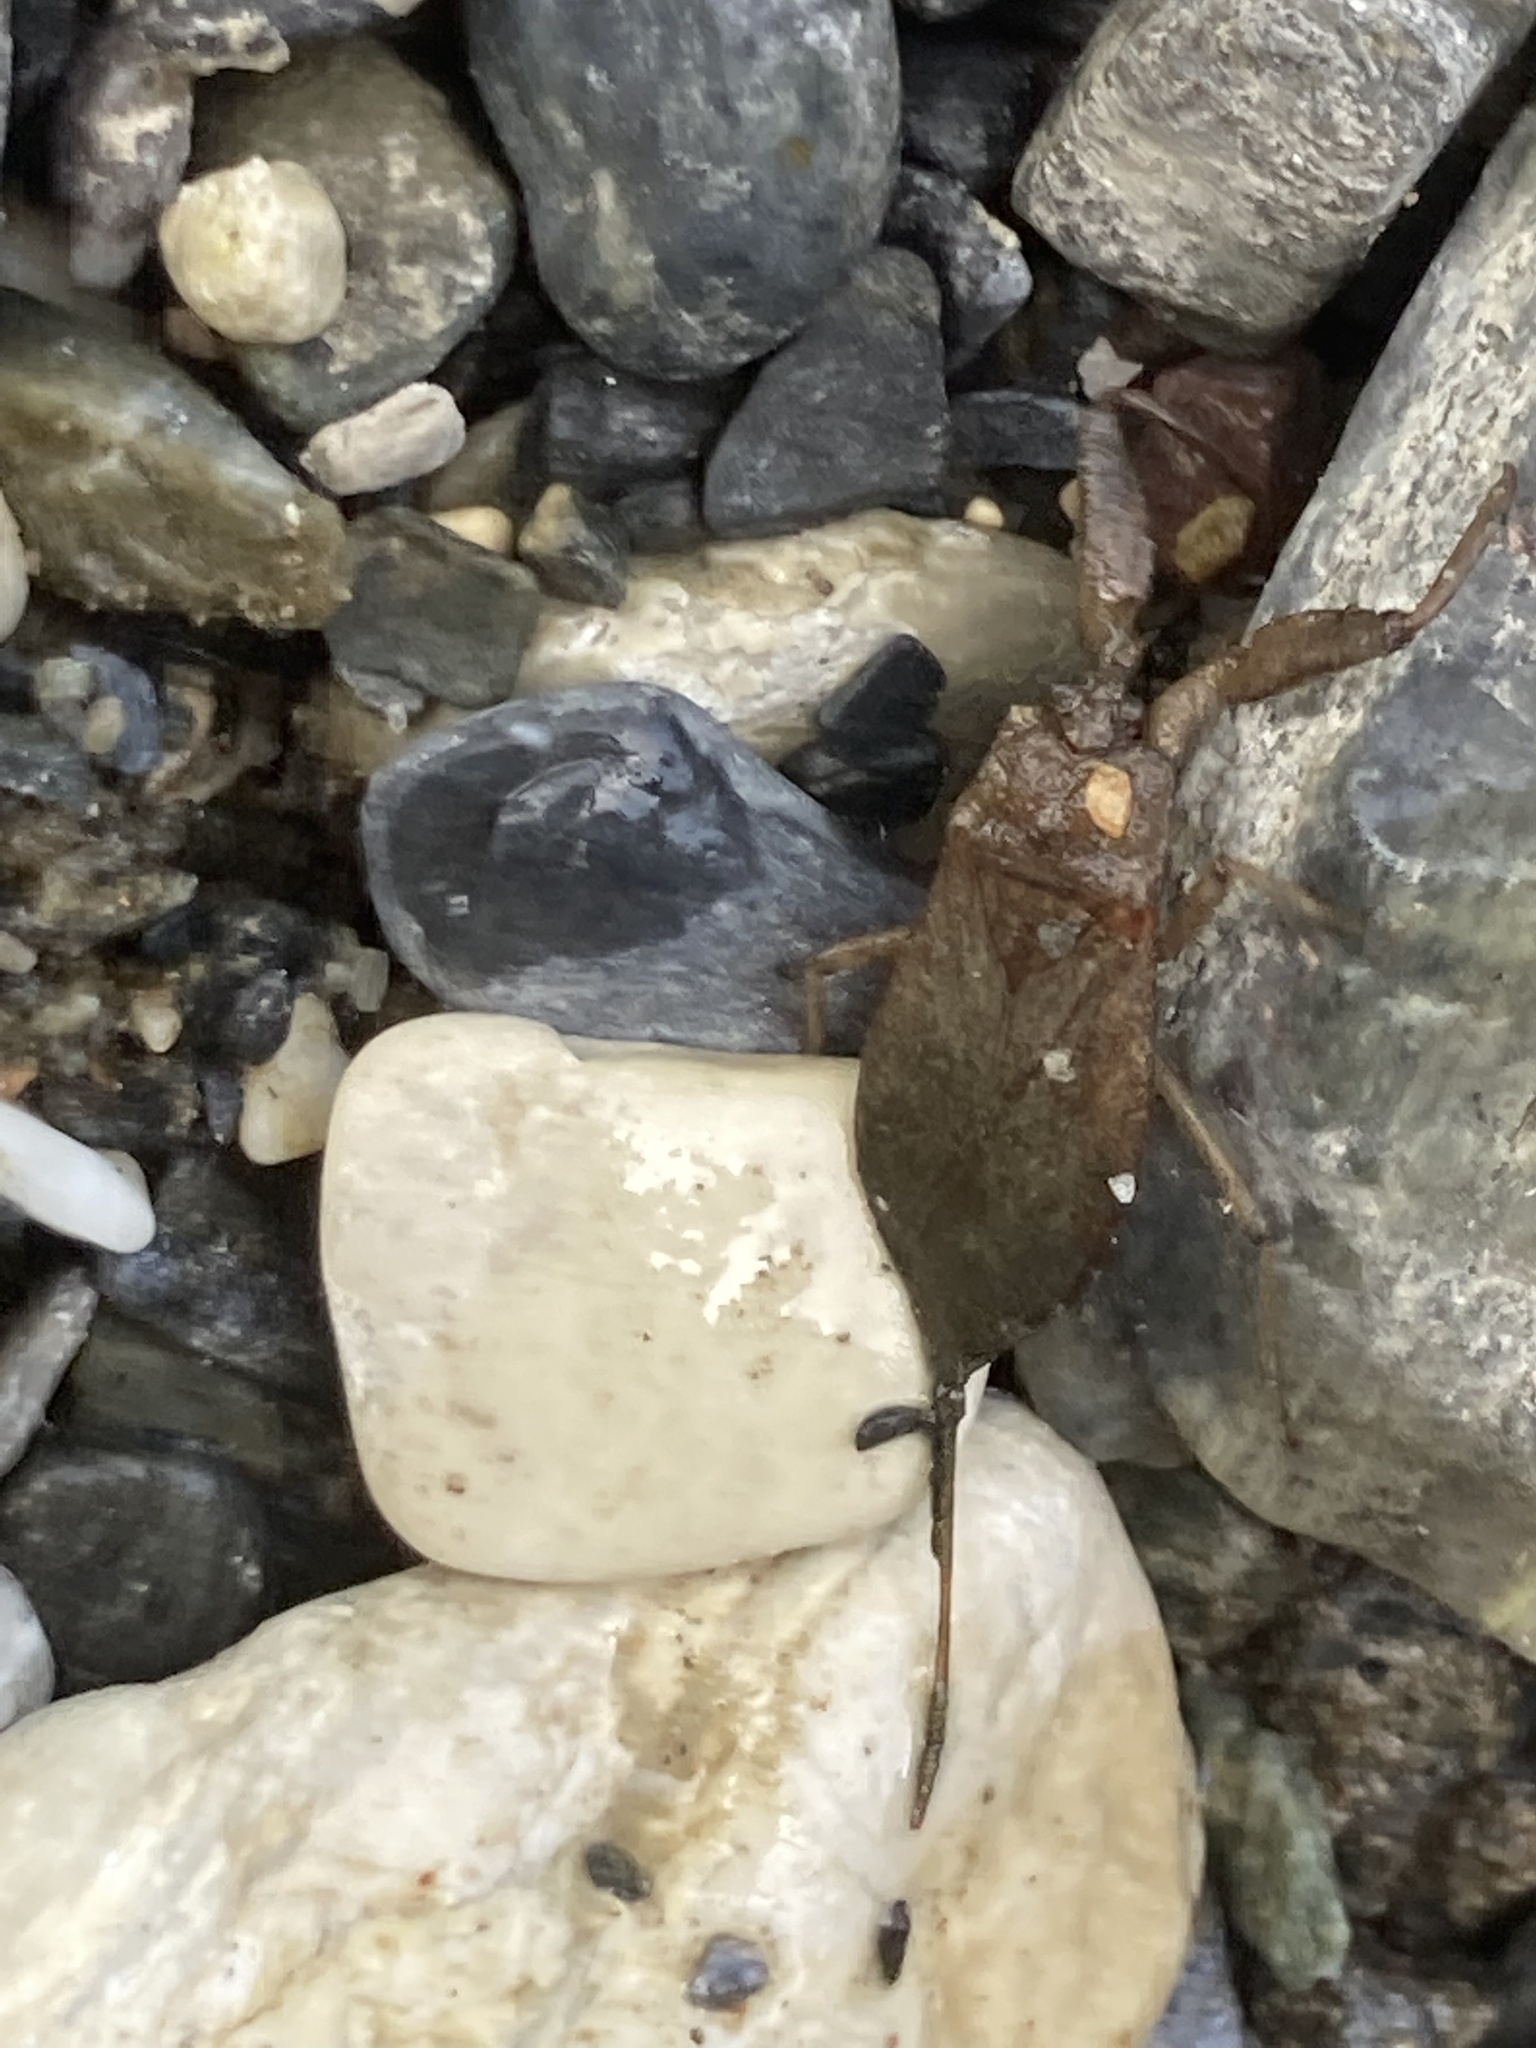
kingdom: Animalia
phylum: Arthropoda
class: Insecta
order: Hemiptera
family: Nepidae
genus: Nepa
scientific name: Nepa cinerea
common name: Water scorpion
